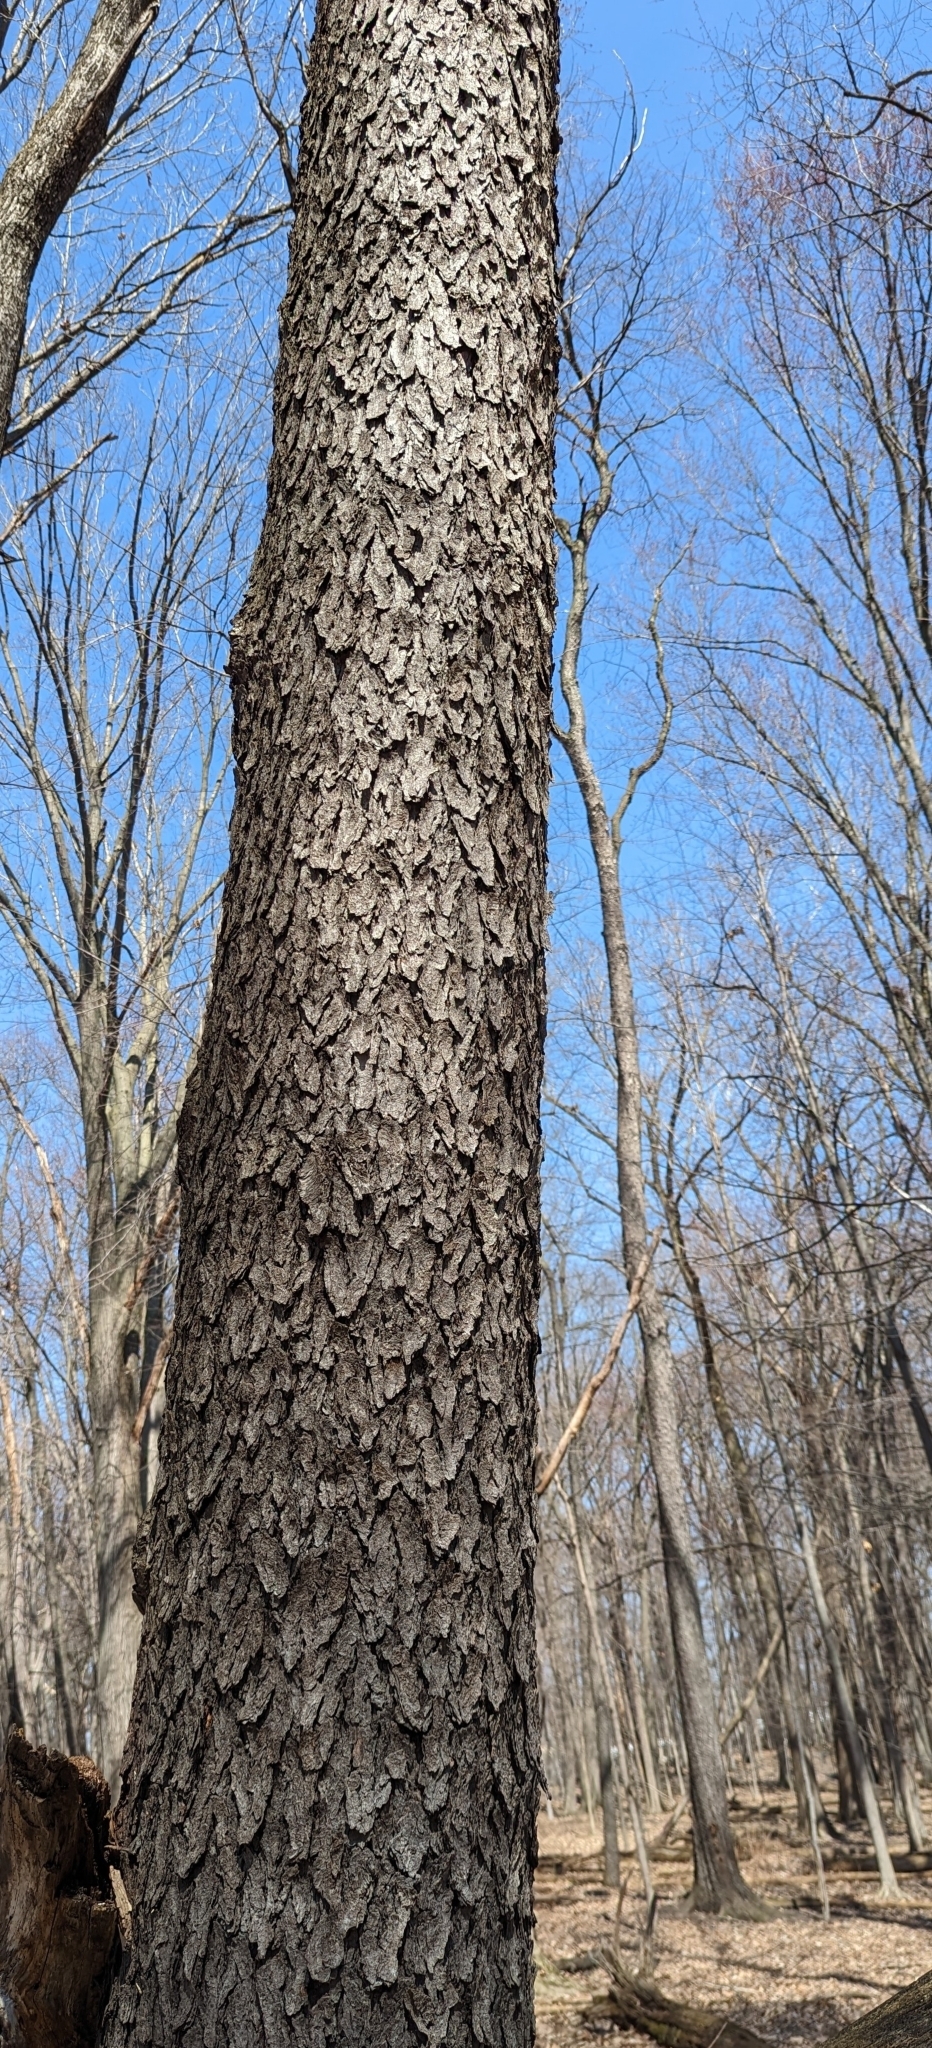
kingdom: Plantae
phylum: Tracheophyta
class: Magnoliopsida
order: Rosales
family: Rosaceae
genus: Prunus
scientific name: Prunus serotina
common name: Black cherry
